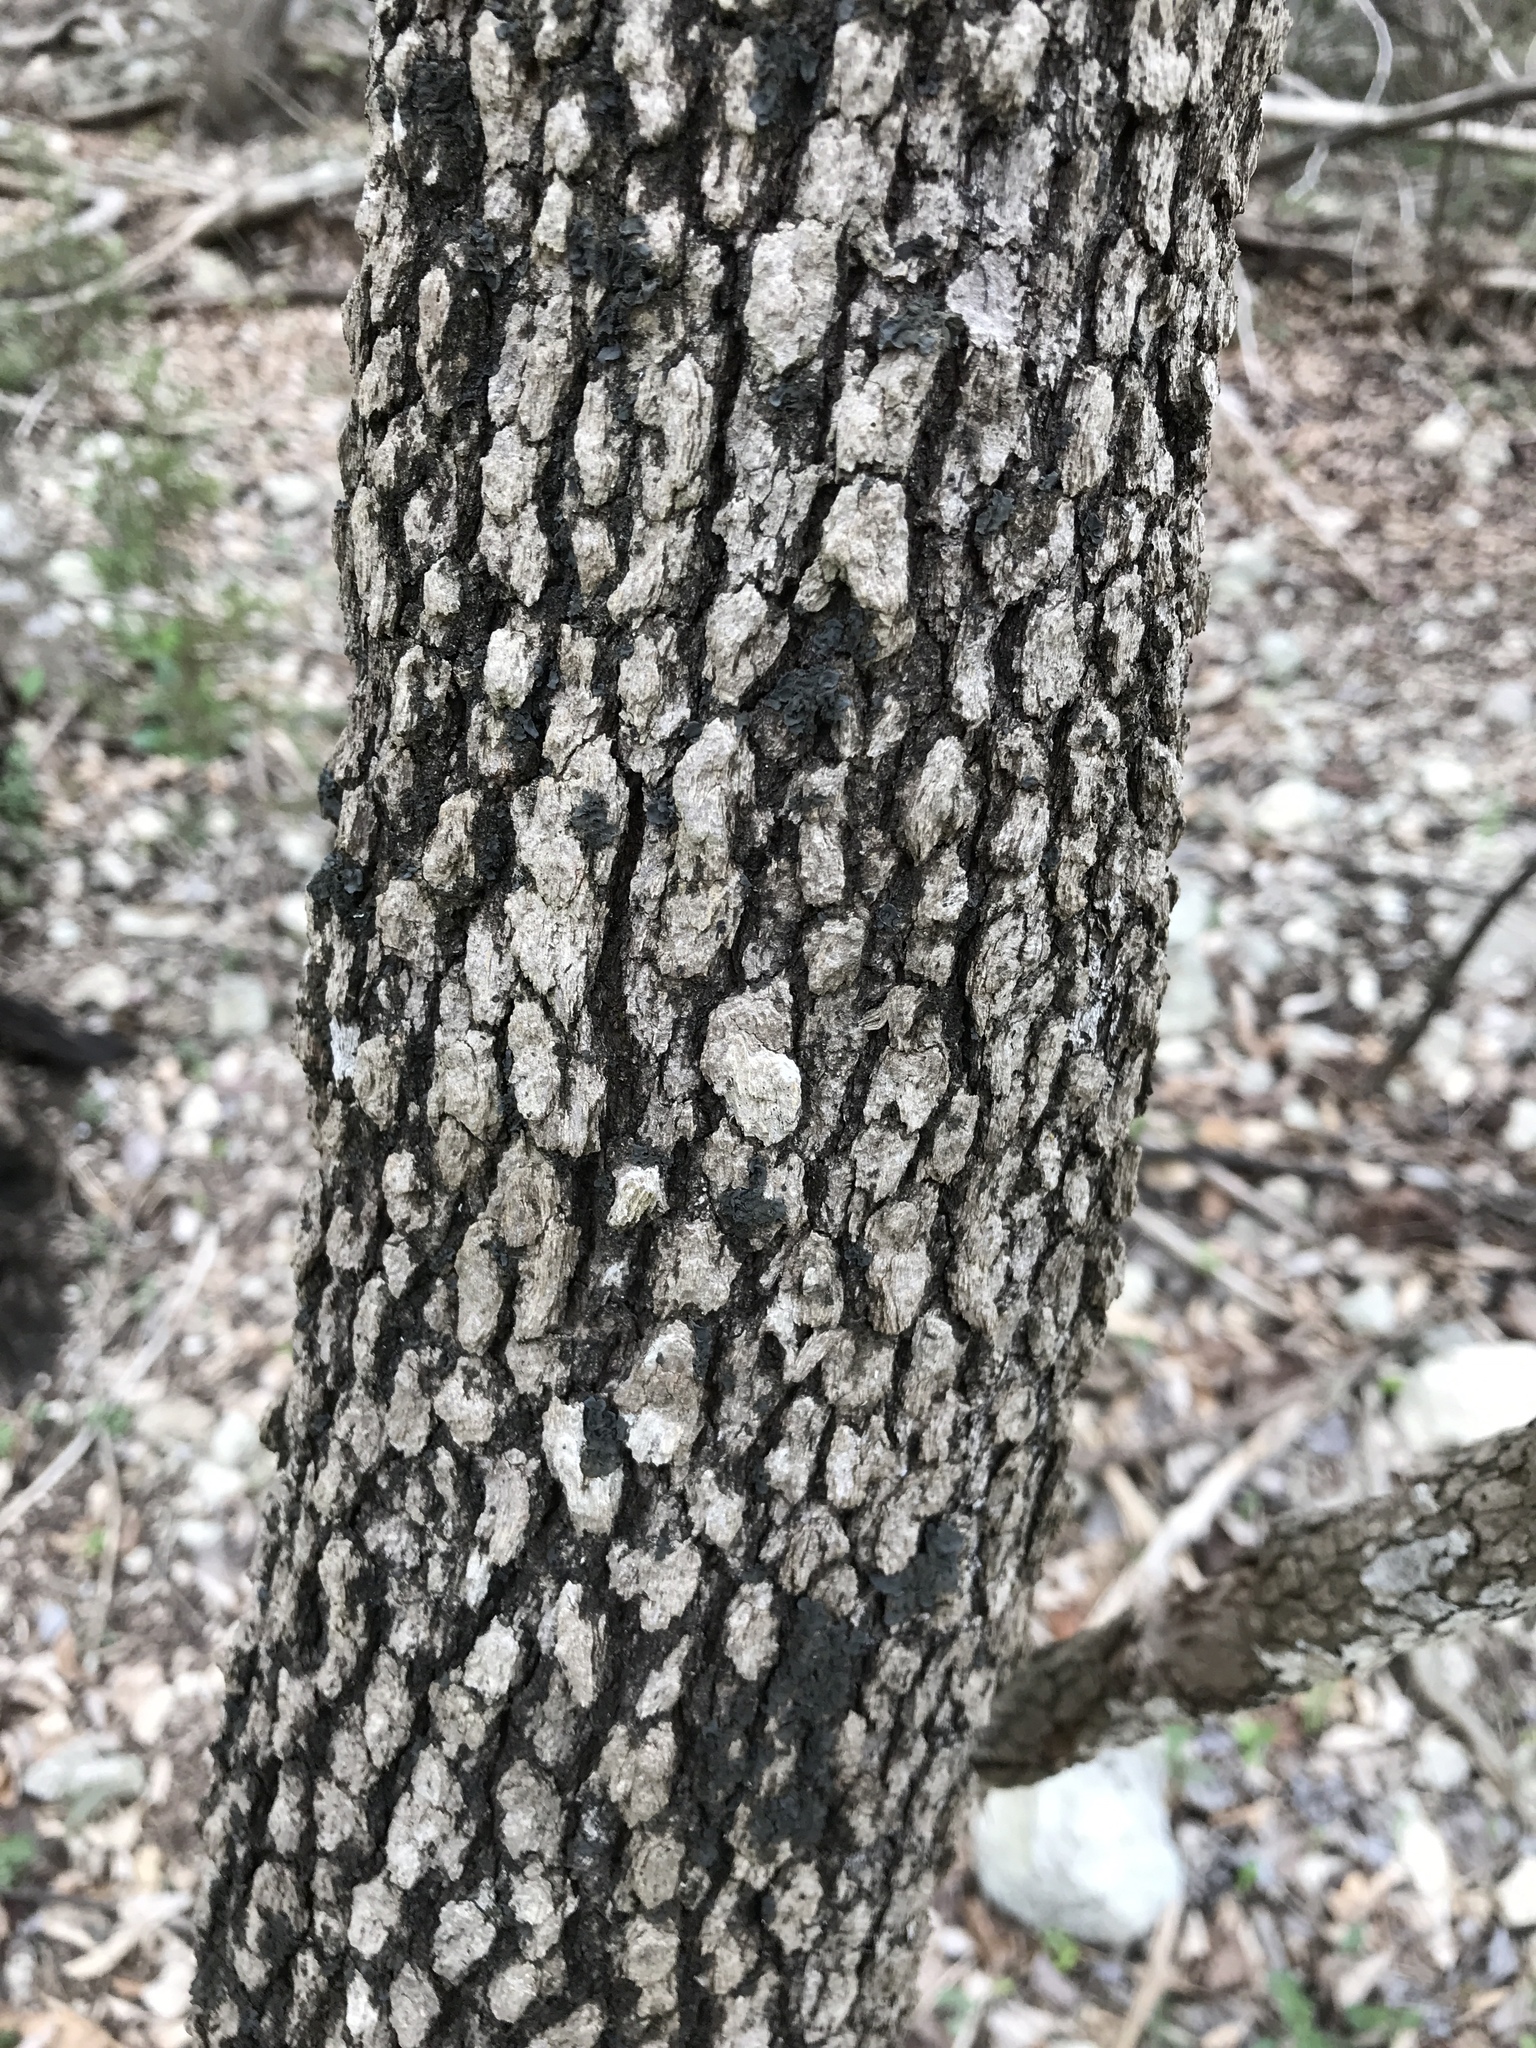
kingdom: Plantae
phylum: Tracheophyta
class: Magnoliopsida
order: Dipsacales
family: Viburnaceae
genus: Viburnum
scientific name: Viburnum rufidulum
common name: Blue haw
